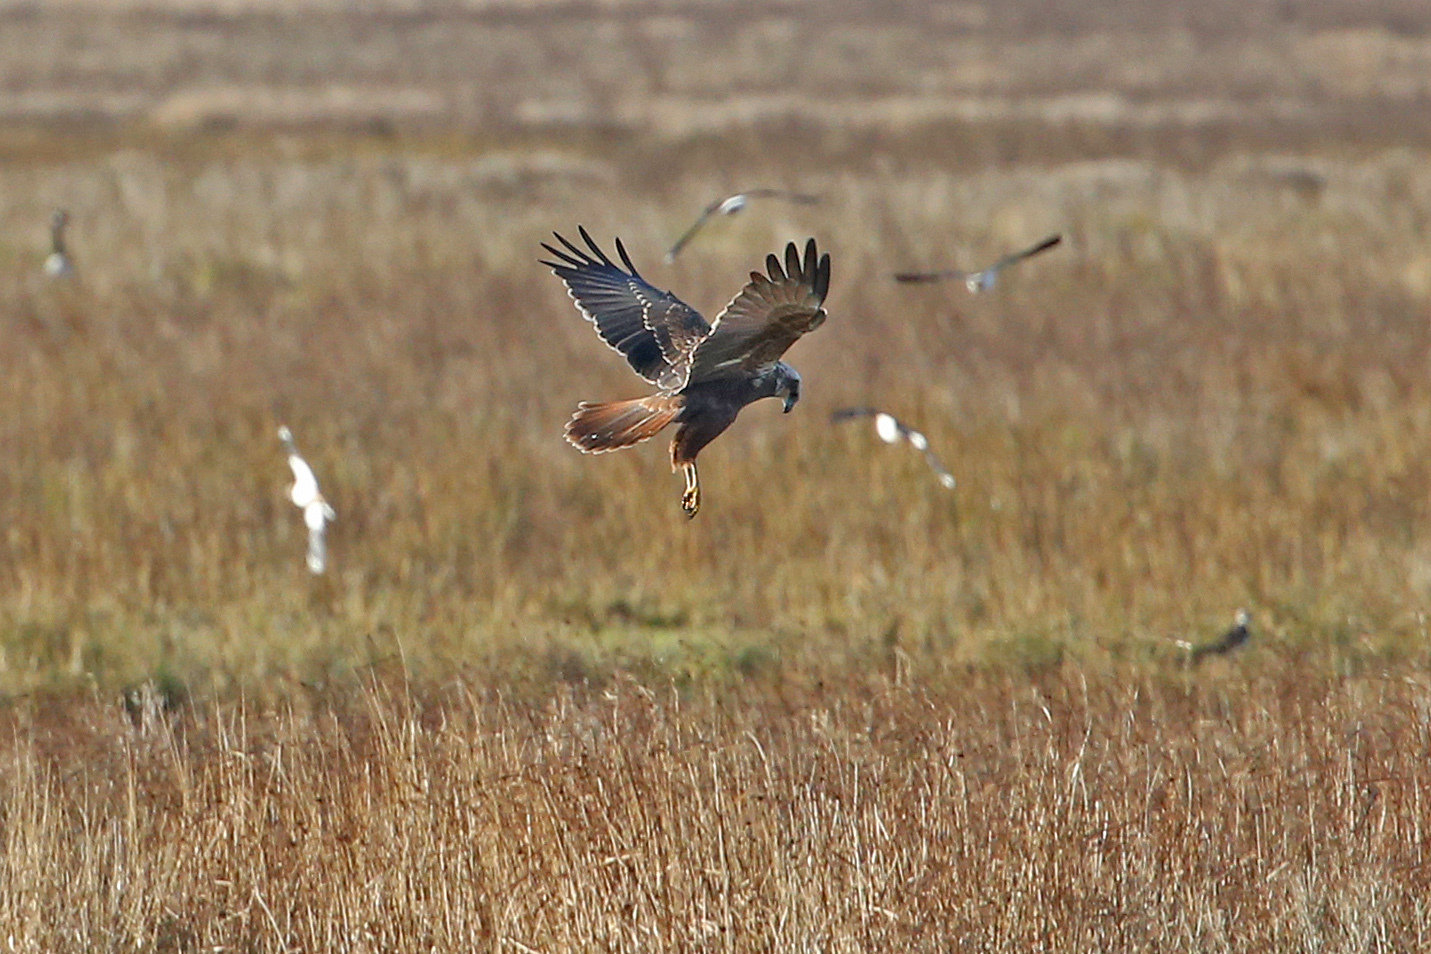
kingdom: Animalia
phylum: Chordata
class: Aves
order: Accipitriformes
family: Accipitridae
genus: Circus
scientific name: Circus aeruginosus
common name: Western marsh harrier
